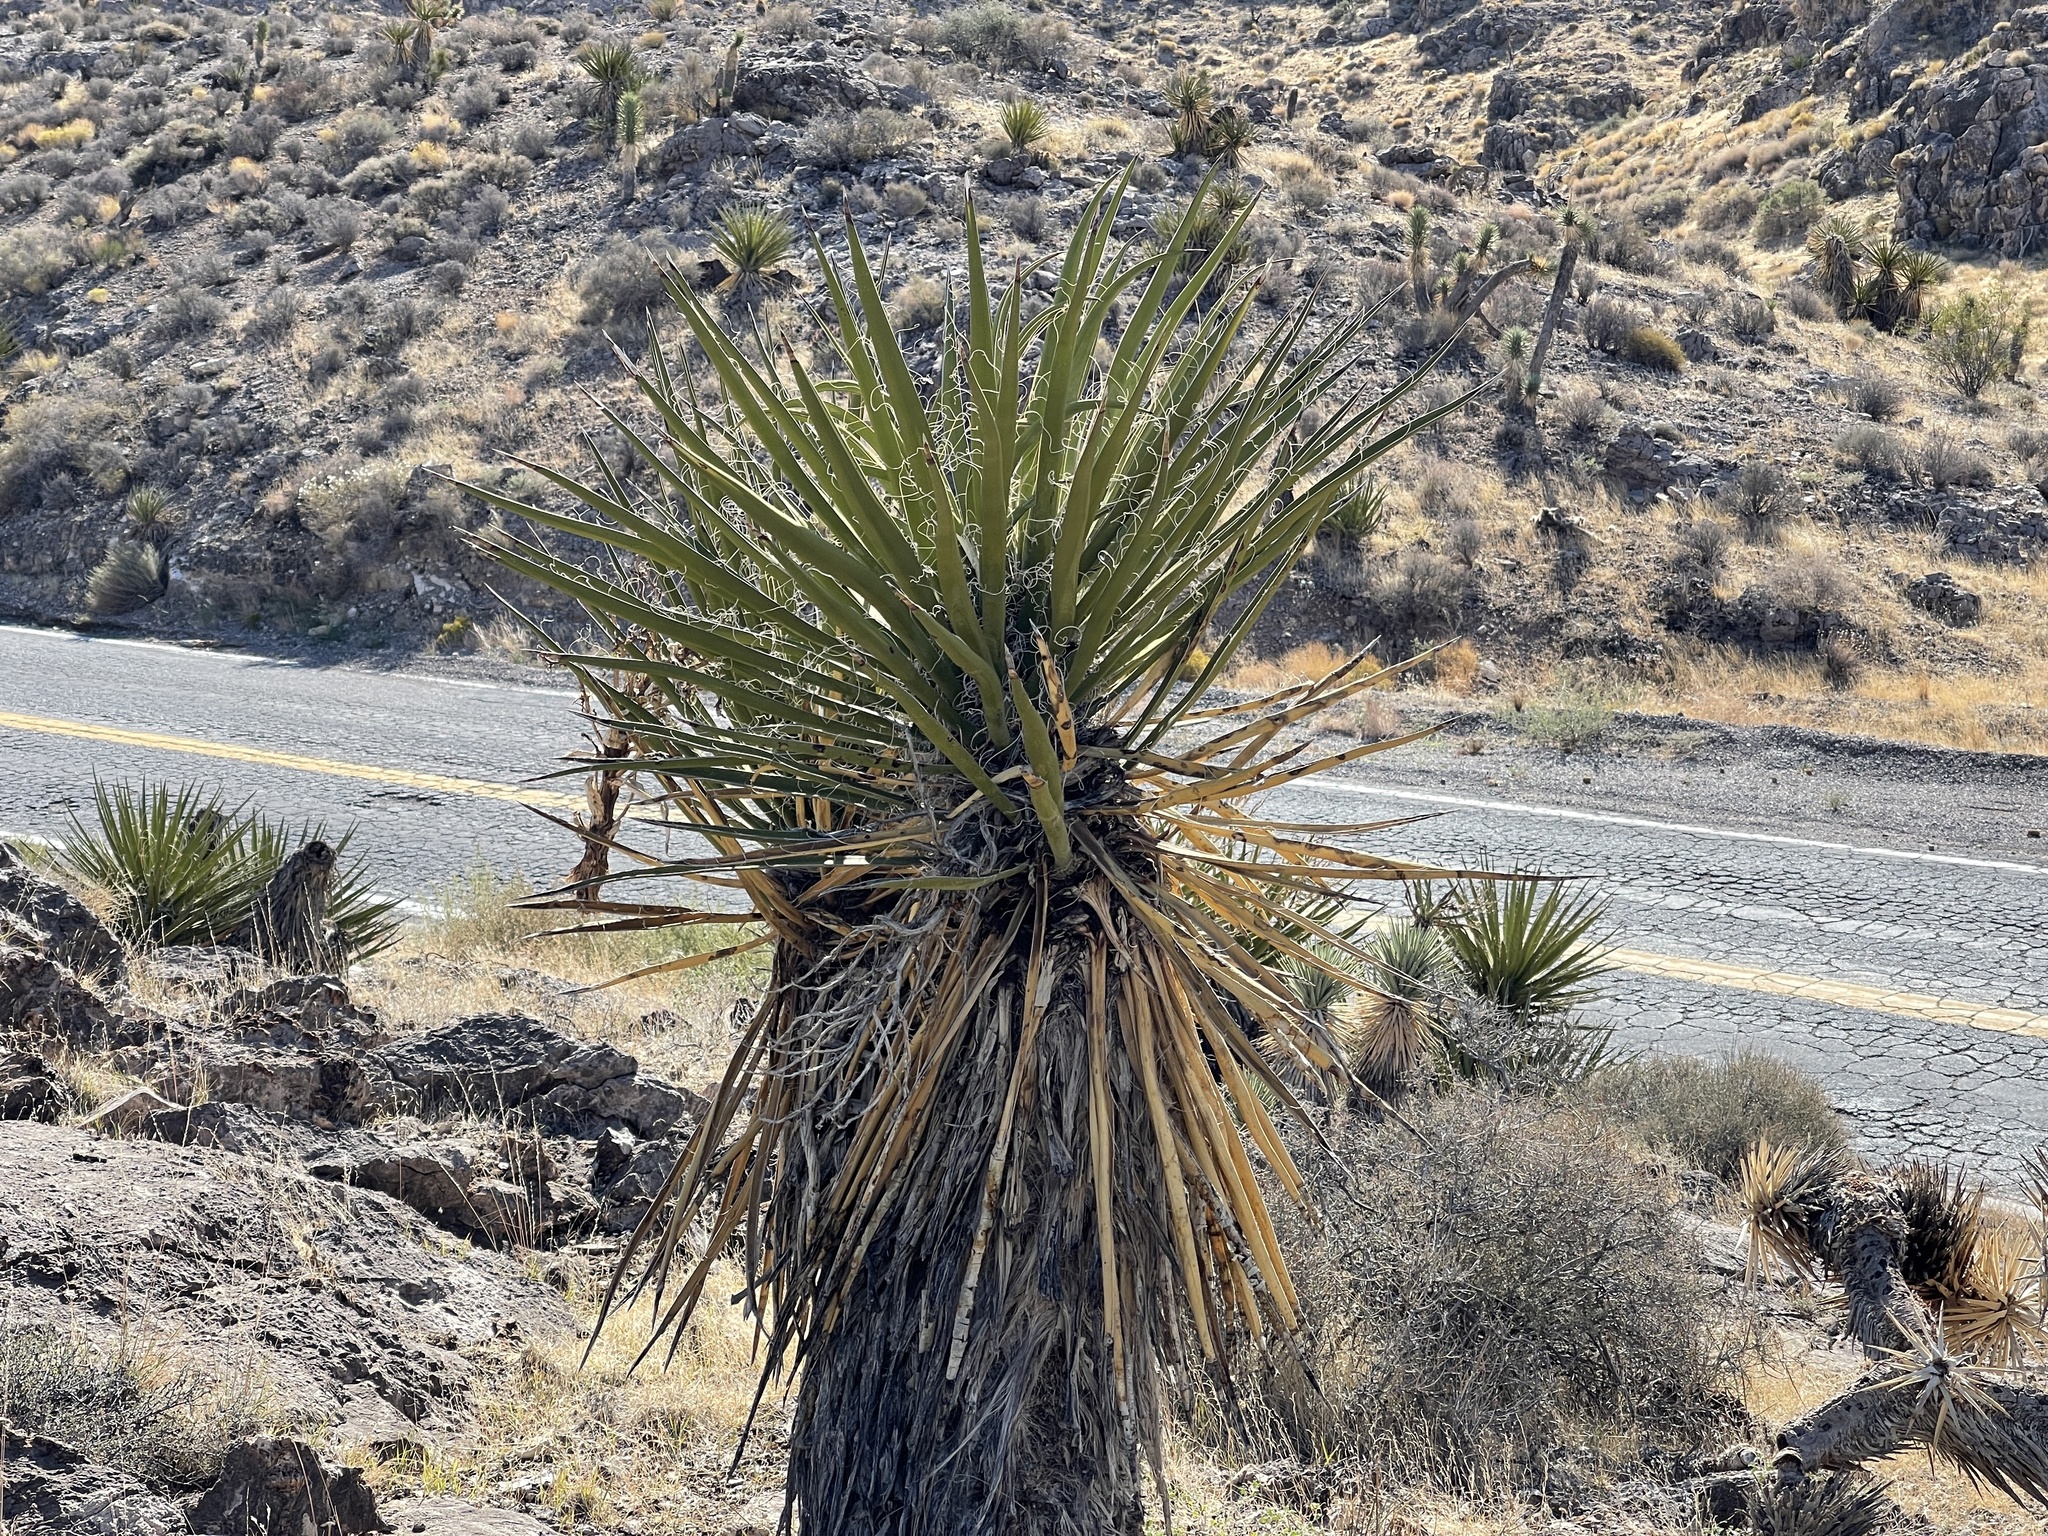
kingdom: Plantae
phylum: Tracheophyta
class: Liliopsida
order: Asparagales
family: Asparagaceae
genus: Yucca
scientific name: Yucca schidigera
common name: Mojave yucca
